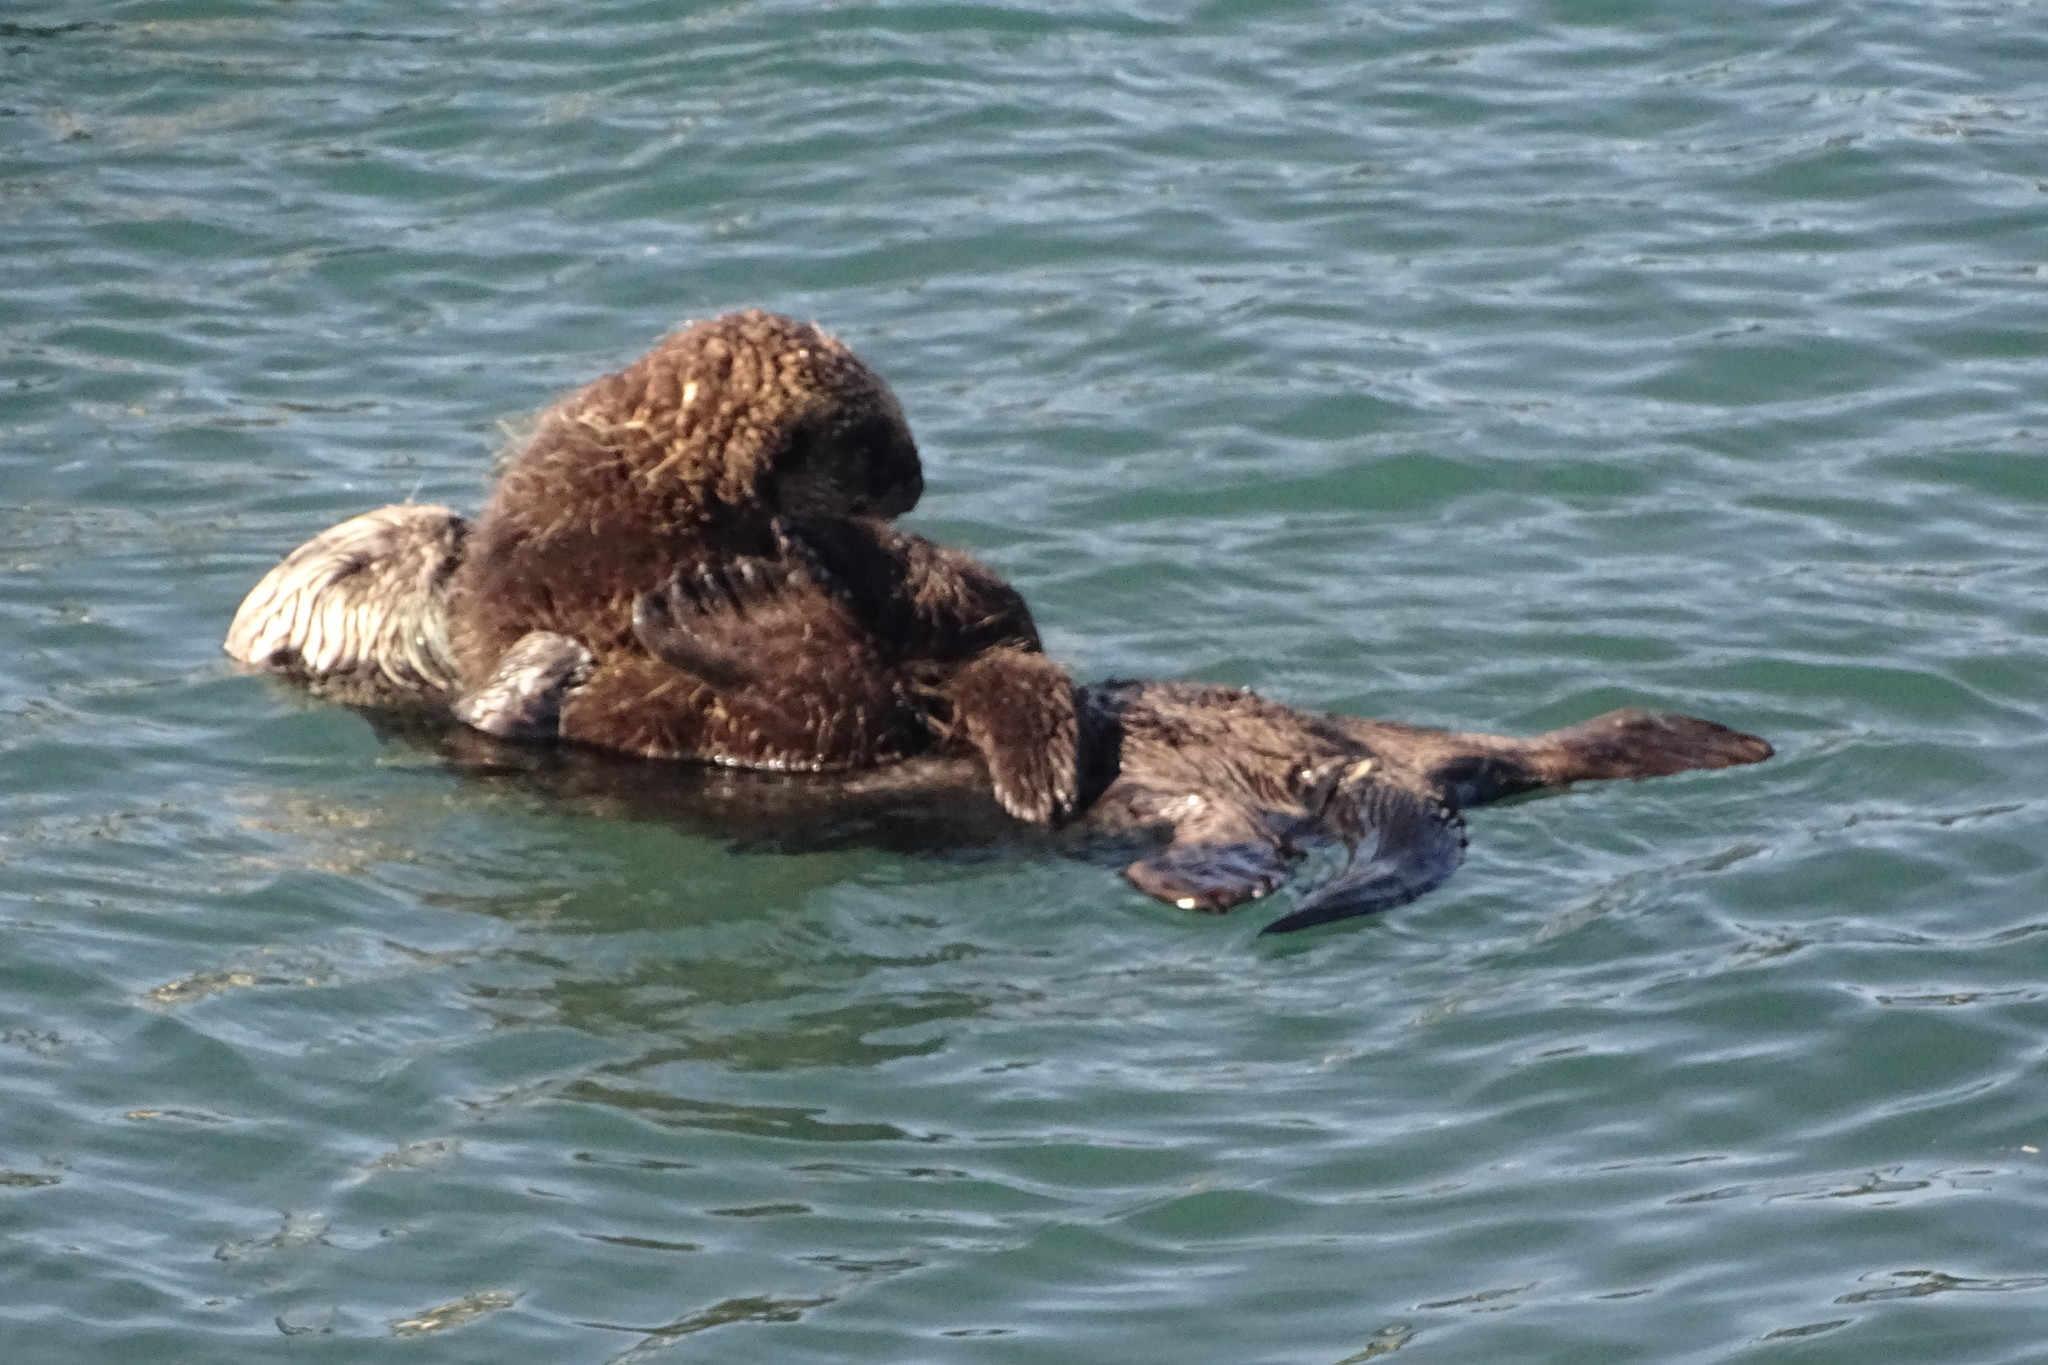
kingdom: Animalia
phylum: Chordata
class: Mammalia
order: Carnivora
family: Mustelidae
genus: Enhydra
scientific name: Enhydra lutris
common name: Sea otter
